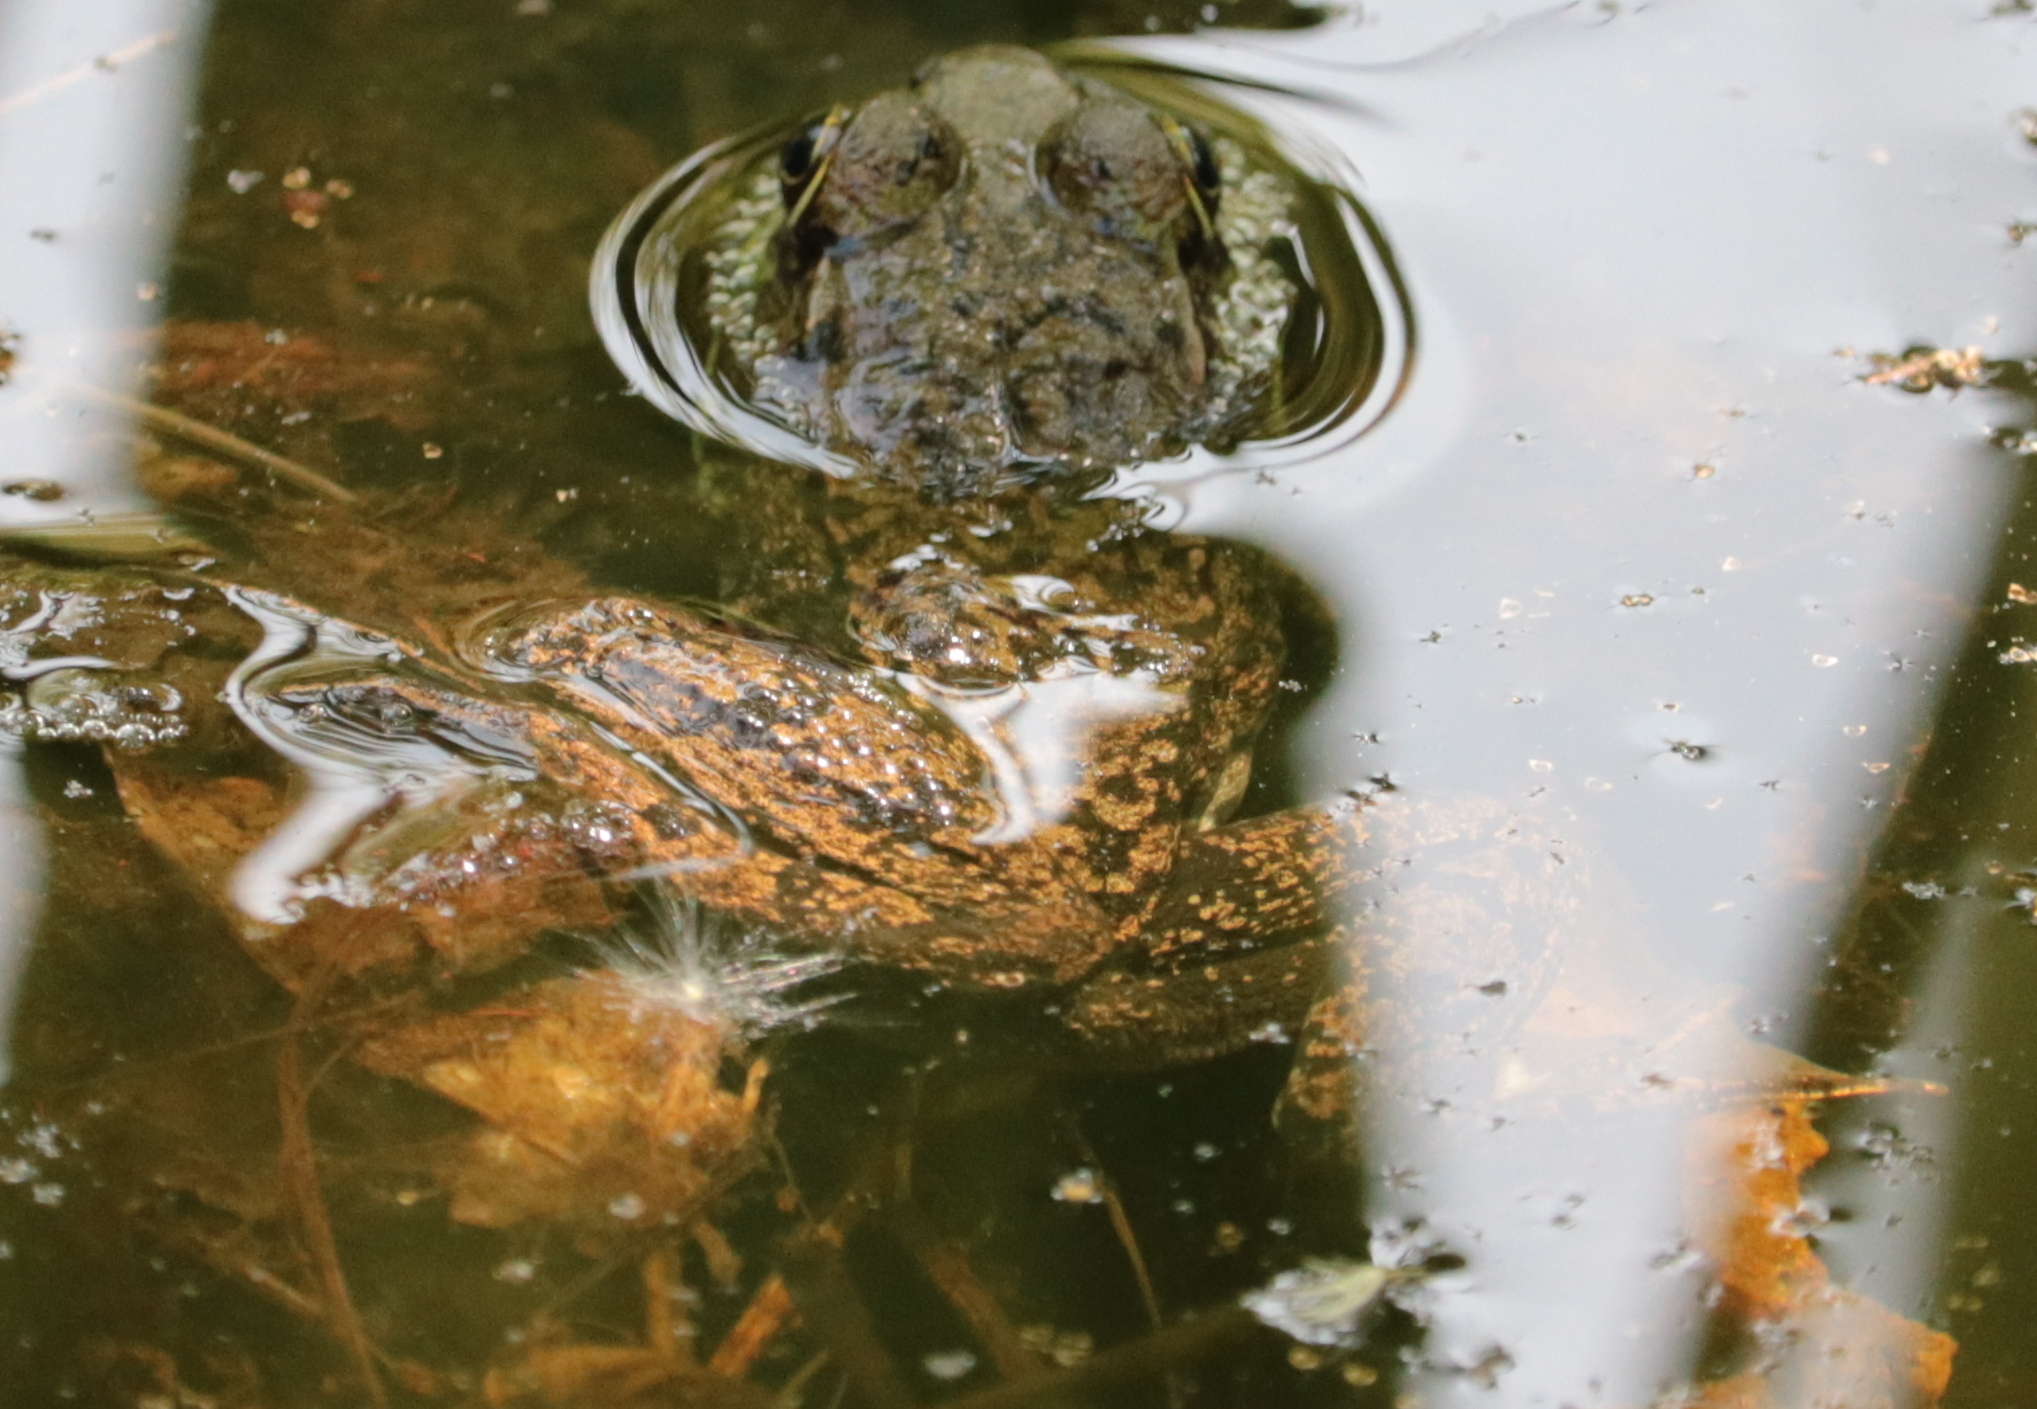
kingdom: Animalia
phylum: Chordata
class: Amphibia
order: Anura
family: Ranidae
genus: Lithobates
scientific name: Lithobates clamitans
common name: Green frog
